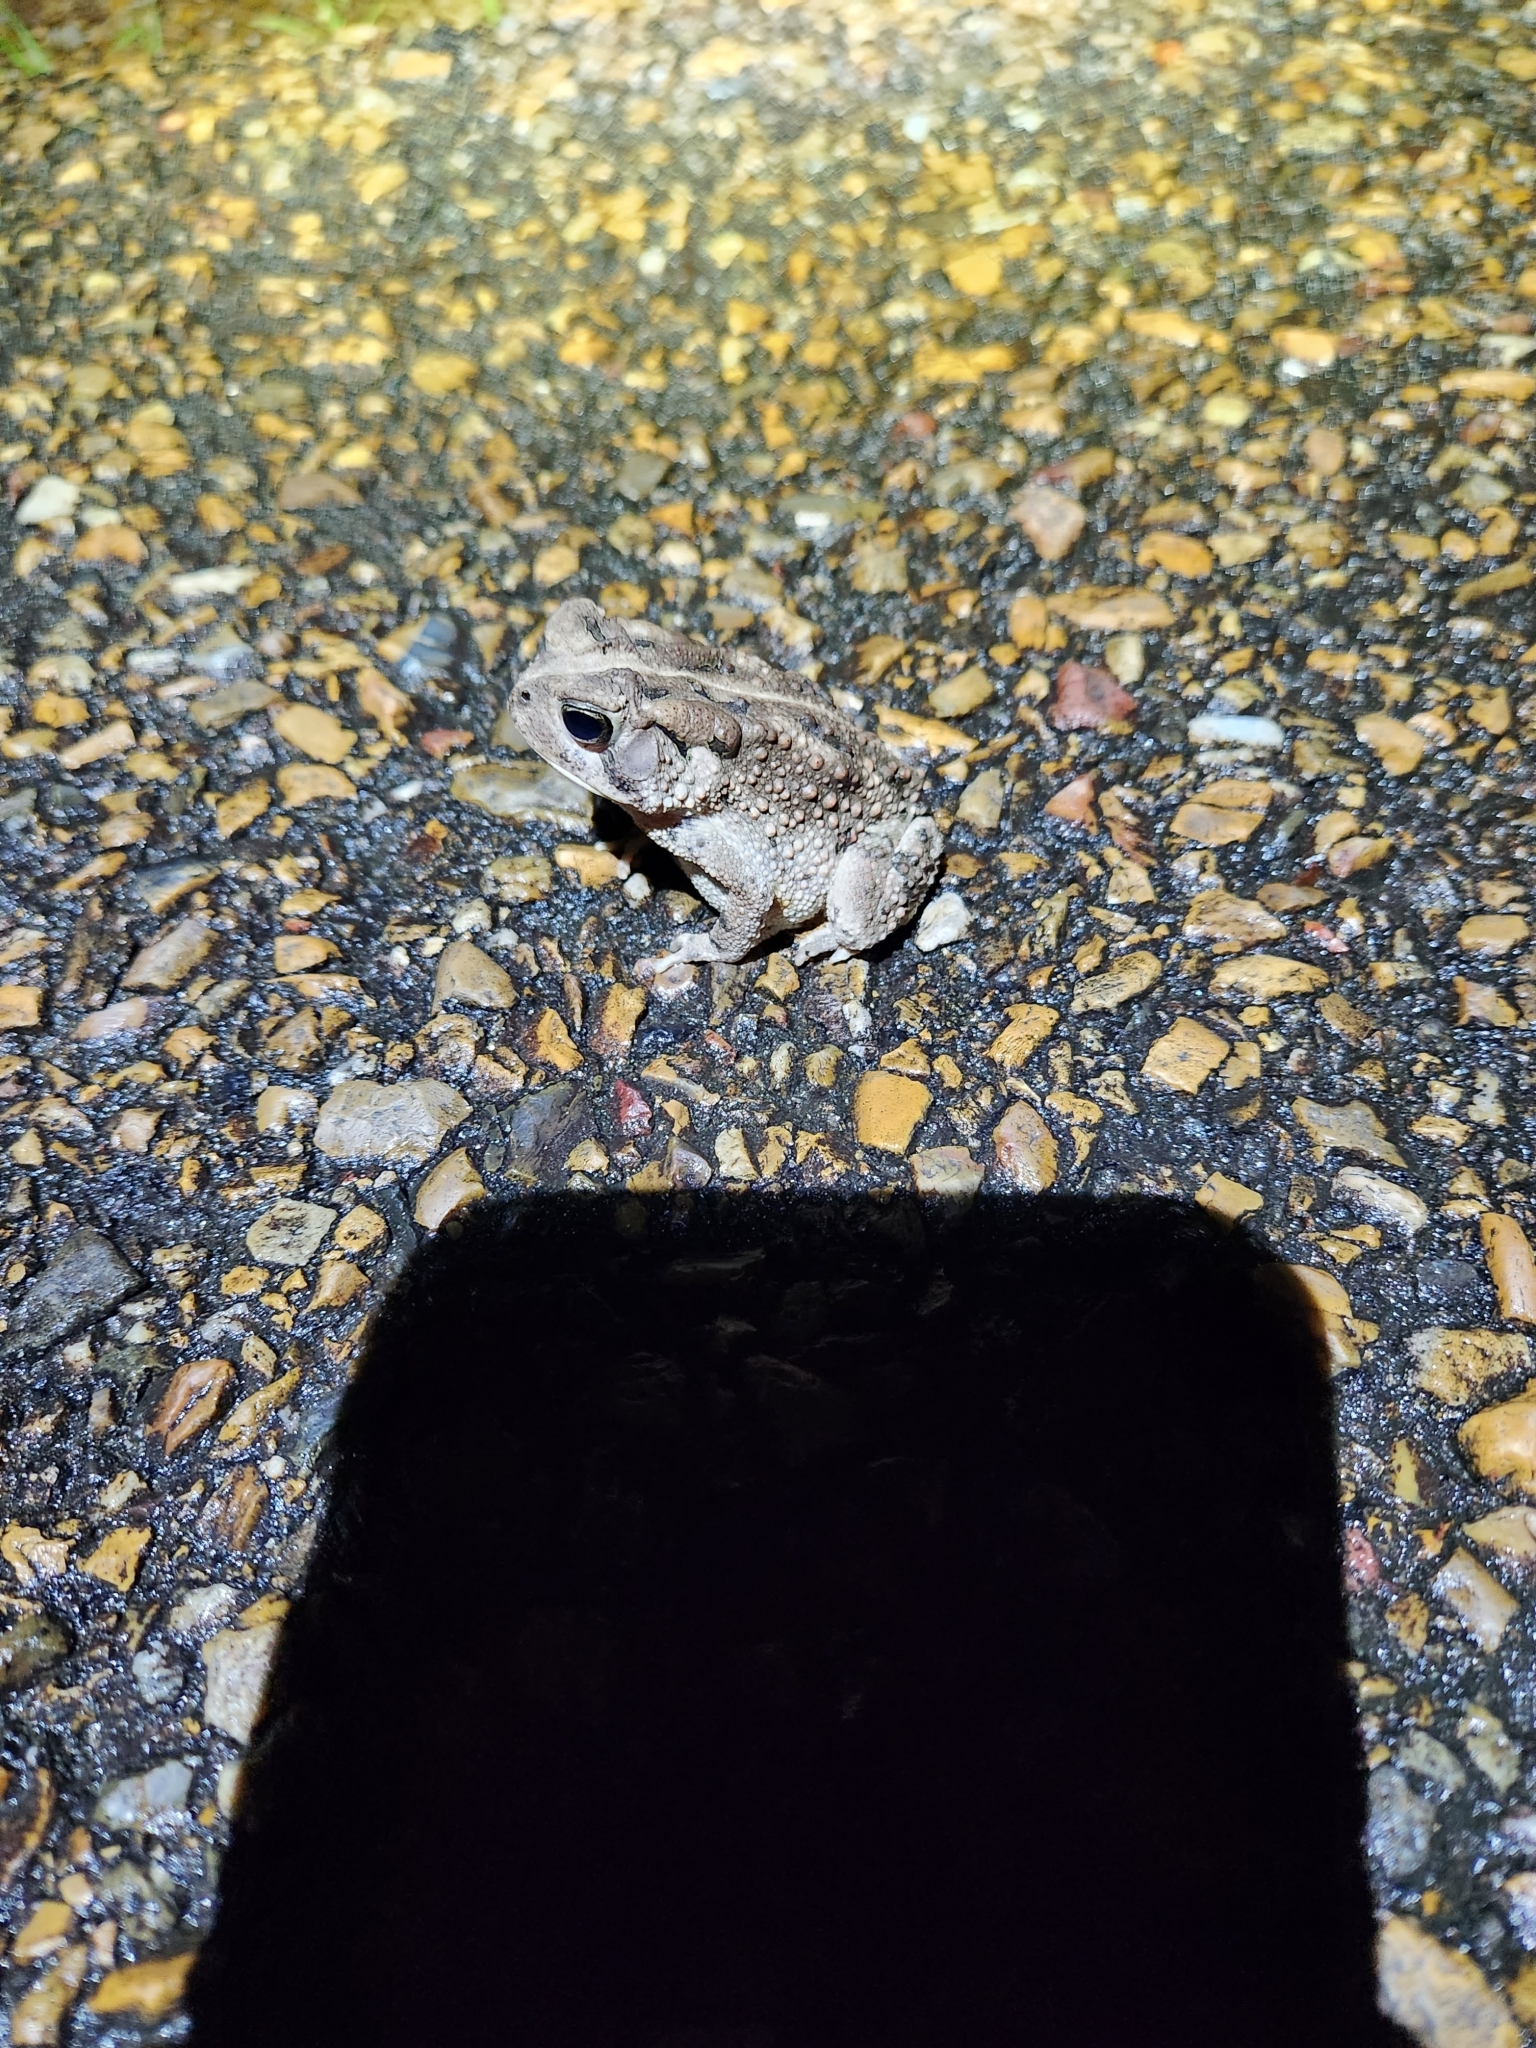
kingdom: Animalia
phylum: Chordata
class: Amphibia
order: Anura
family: Bufonidae
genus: Anaxyrus
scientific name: Anaxyrus fowleri
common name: Fowler's toad
